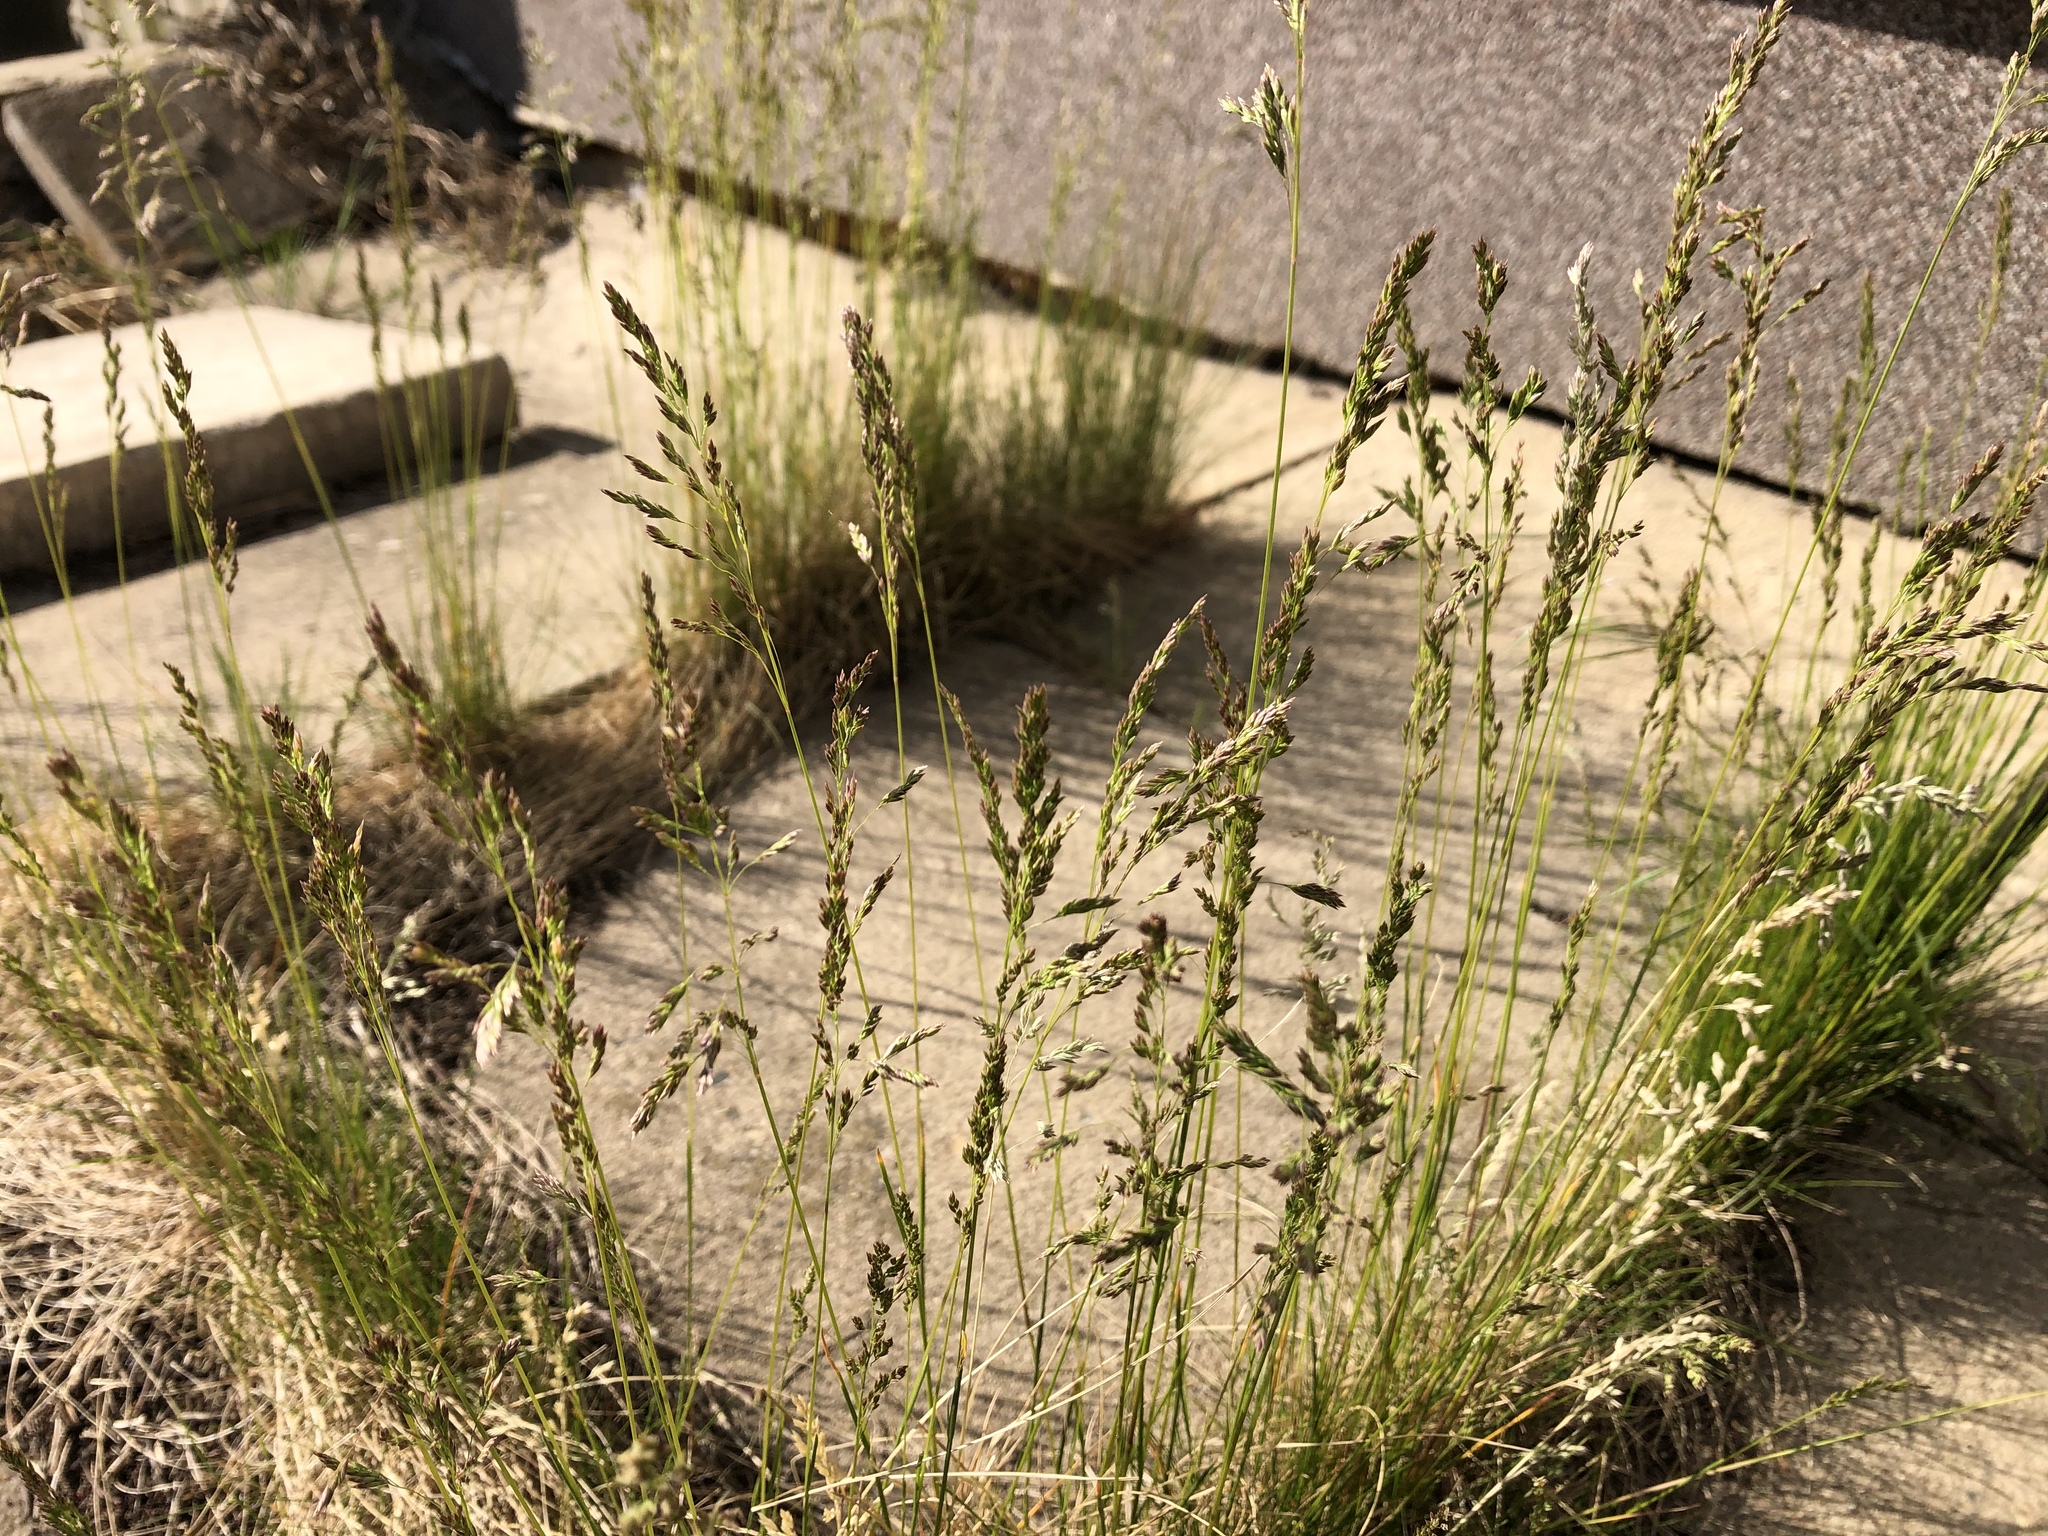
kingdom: Plantae
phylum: Tracheophyta
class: Liliopsida
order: Poales
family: Poaceae
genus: Poa
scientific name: Poa angustifolia
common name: Narrow-leaved meadow-grass
